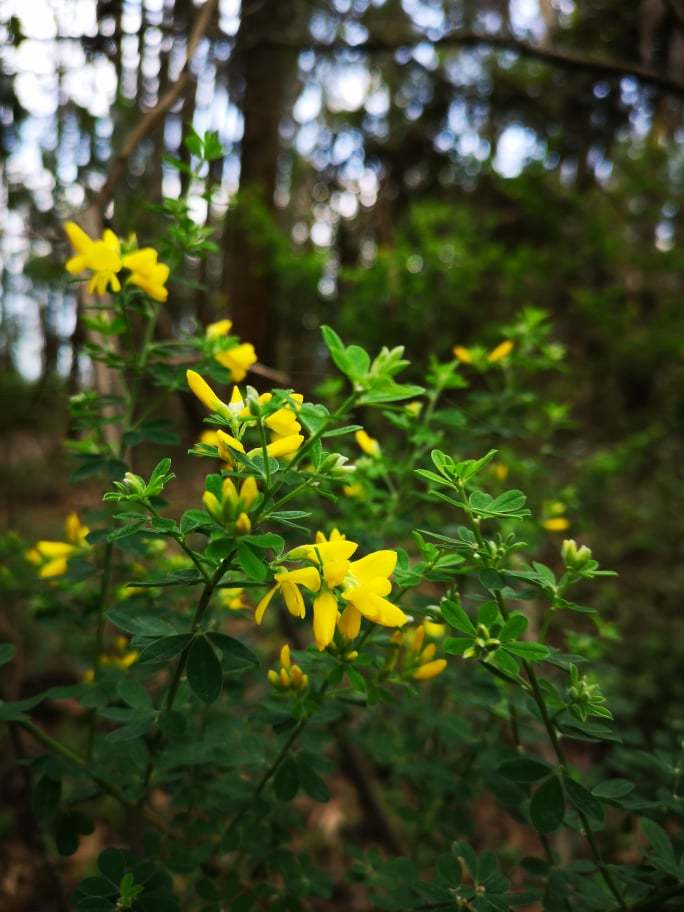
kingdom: Plantae
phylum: Tracheophyta
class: Magnoliopsida
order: Fabales
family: Fabaceae
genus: Genista
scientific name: Genista monspessulana
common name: Montpellier broom
